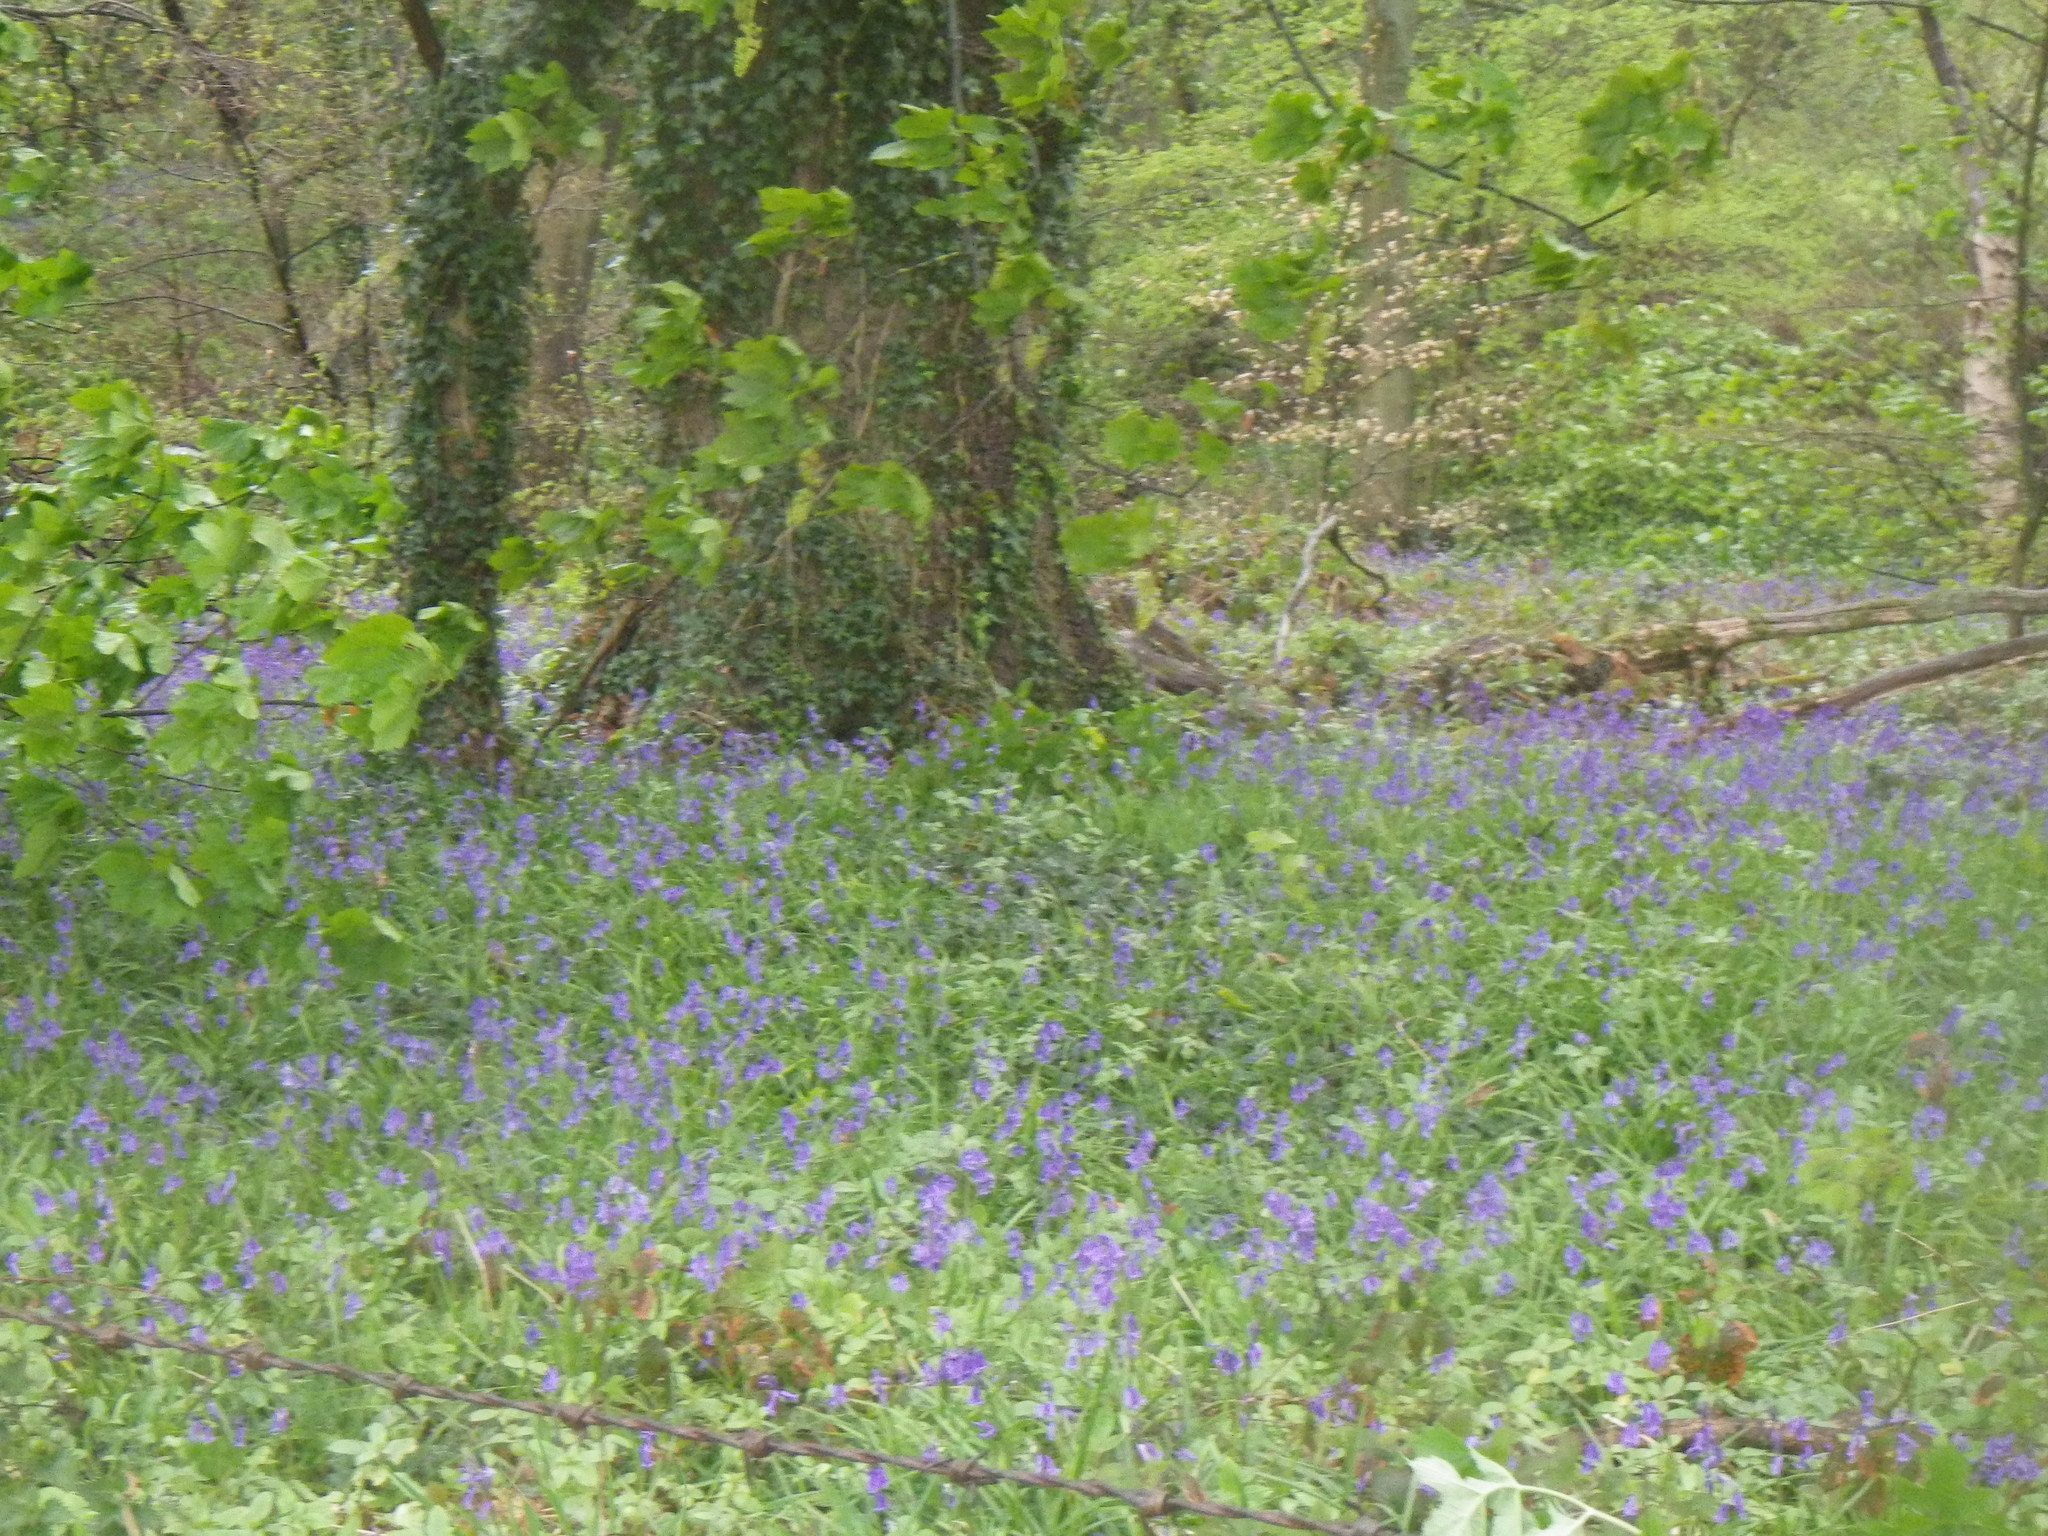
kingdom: Plantae
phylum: Tracheophyta
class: Liliopsida
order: Asparagales
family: Asparagaceae
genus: Hyacinthoides
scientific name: Hyacinthoides non-scripta
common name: Bluebell
